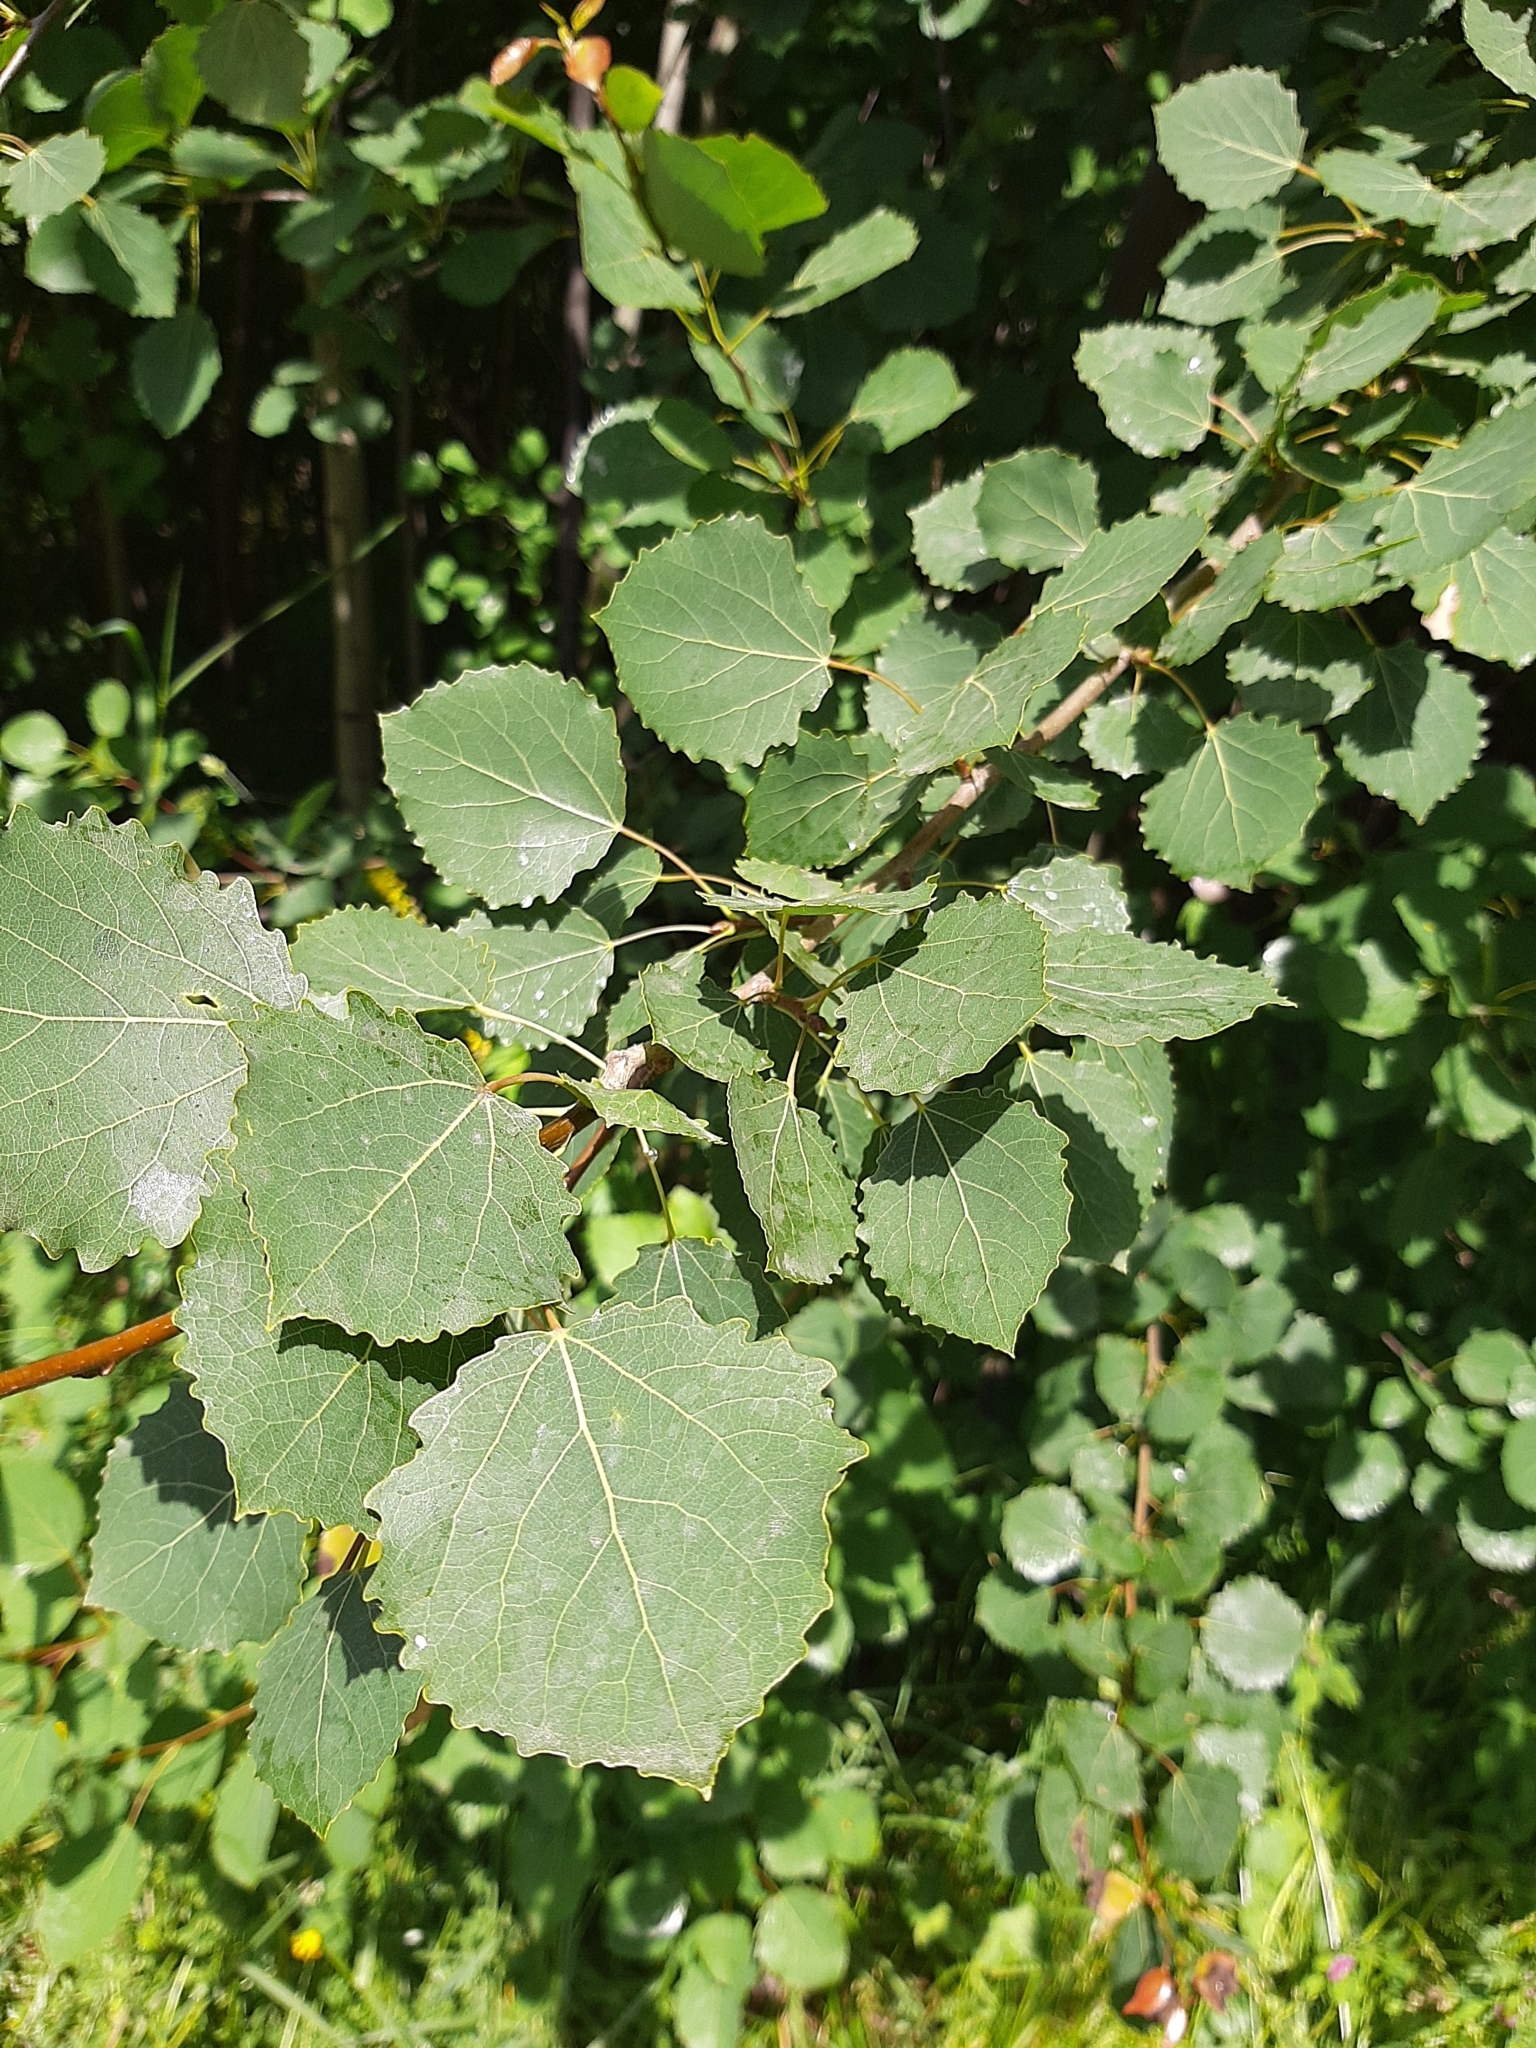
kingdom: Plantae
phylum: Tracheophyta
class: Magnoliopsida
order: Malpighiales
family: Salicaceae
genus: Populus
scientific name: Populus tremula
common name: European aspen
